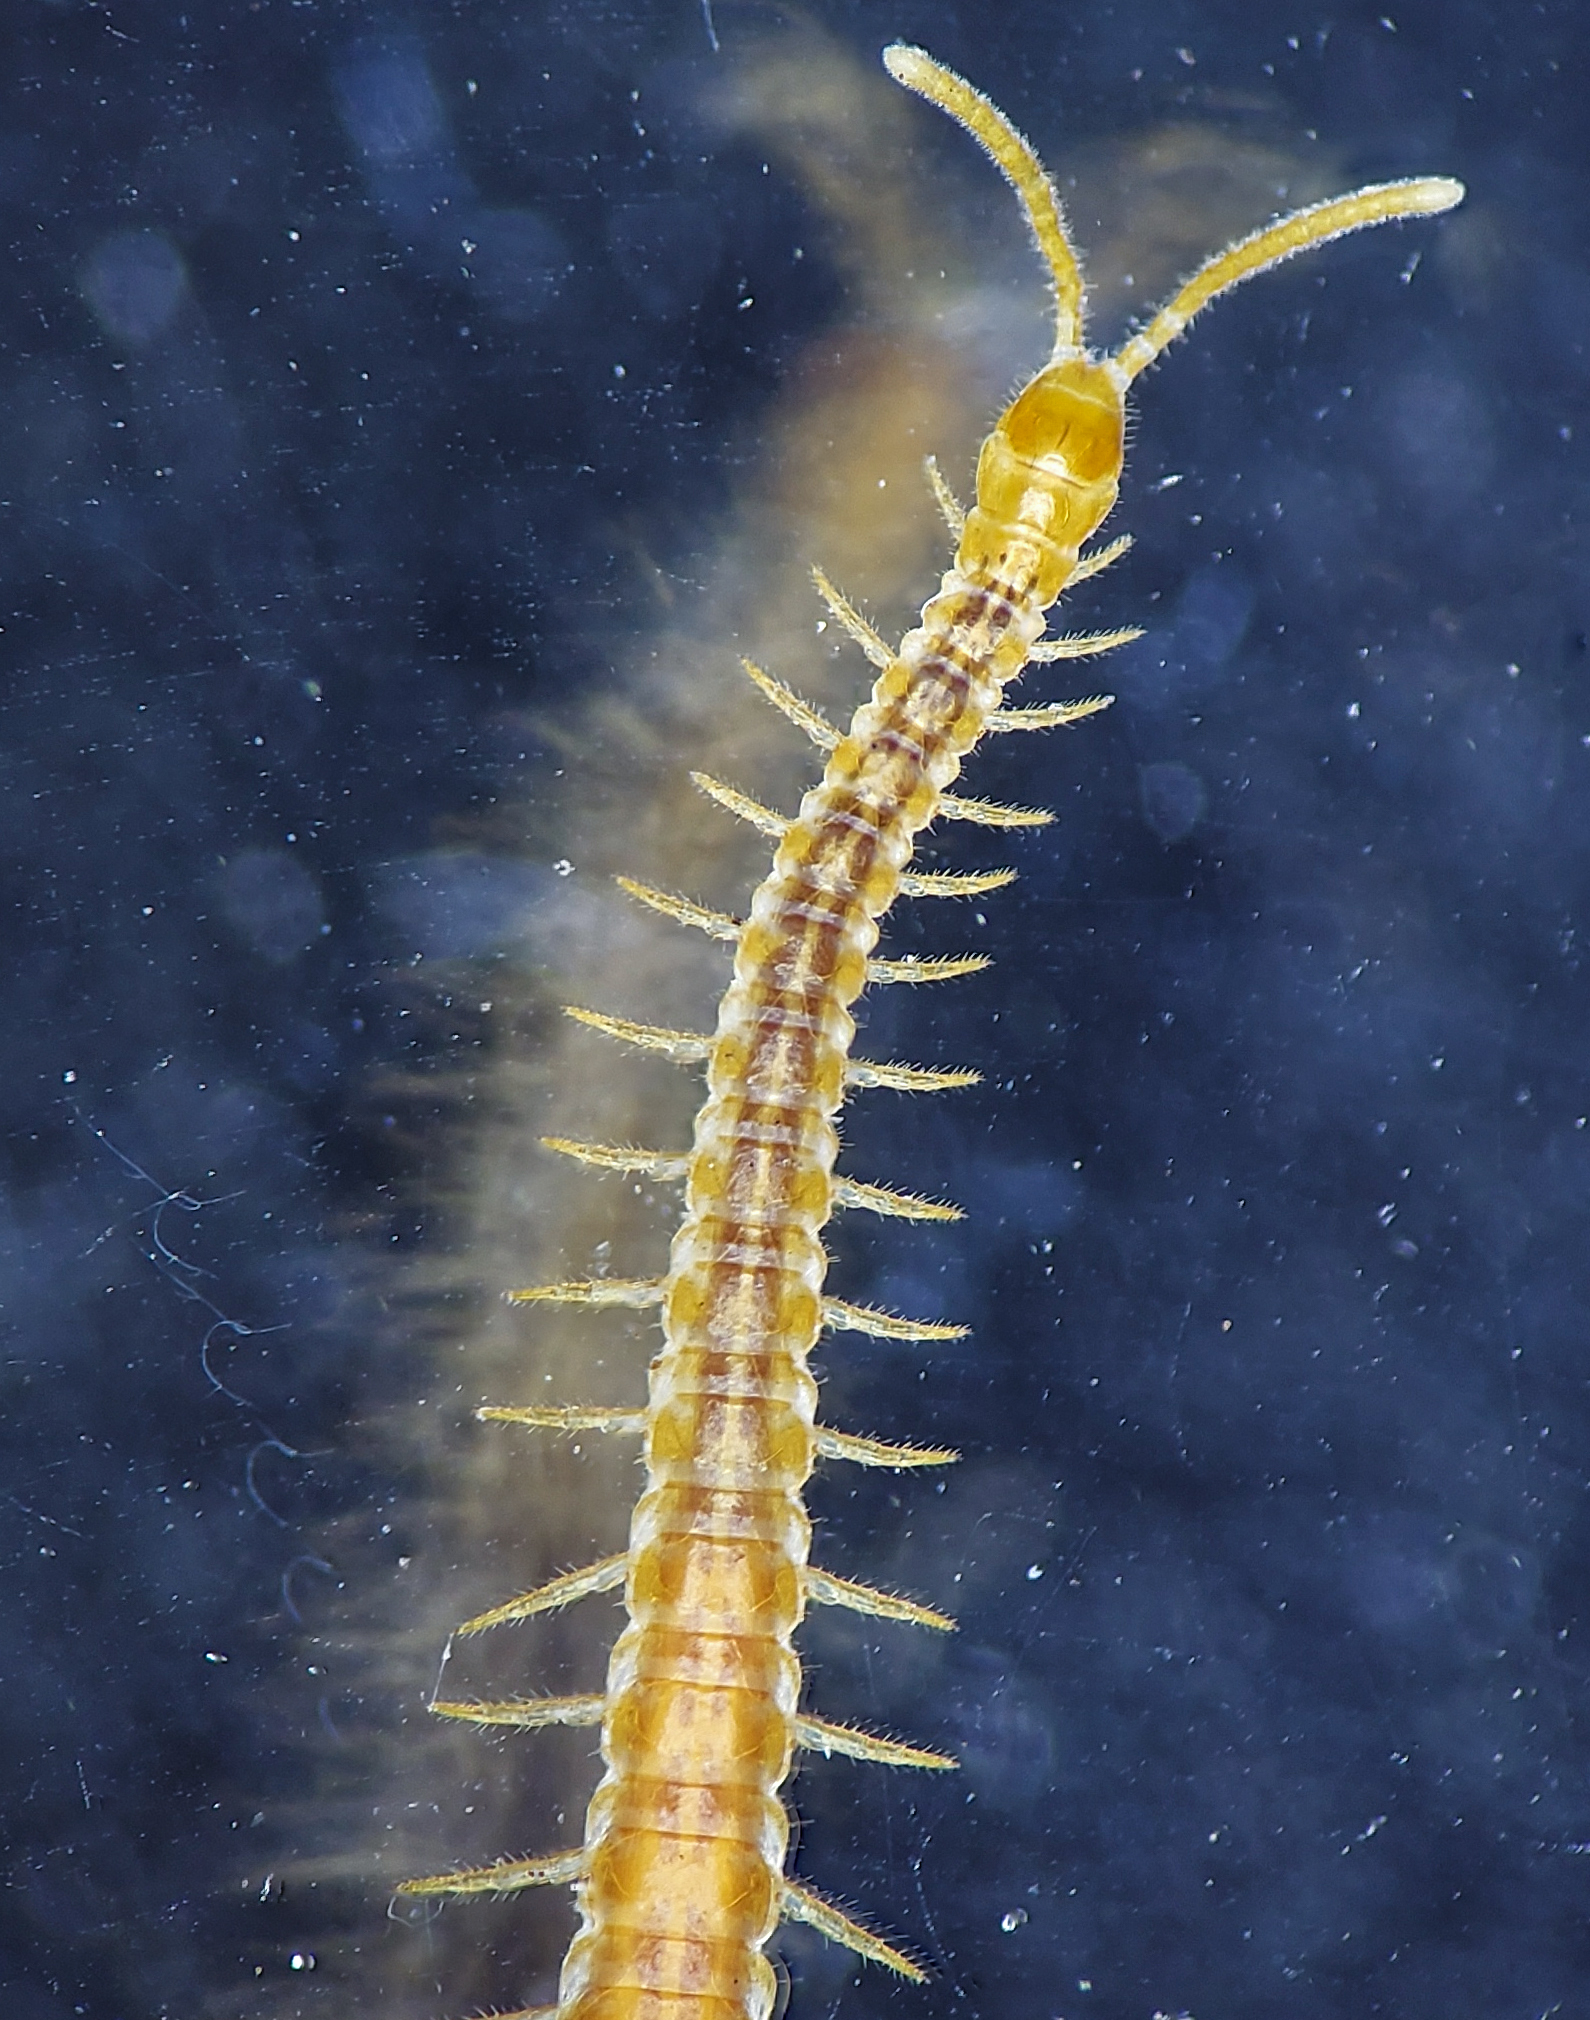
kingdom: Animalia
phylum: Arthropoda
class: Chilopoda
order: Geophilomorpha
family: Linotaeniidae
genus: Strigamia
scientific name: Strigamia branneri
